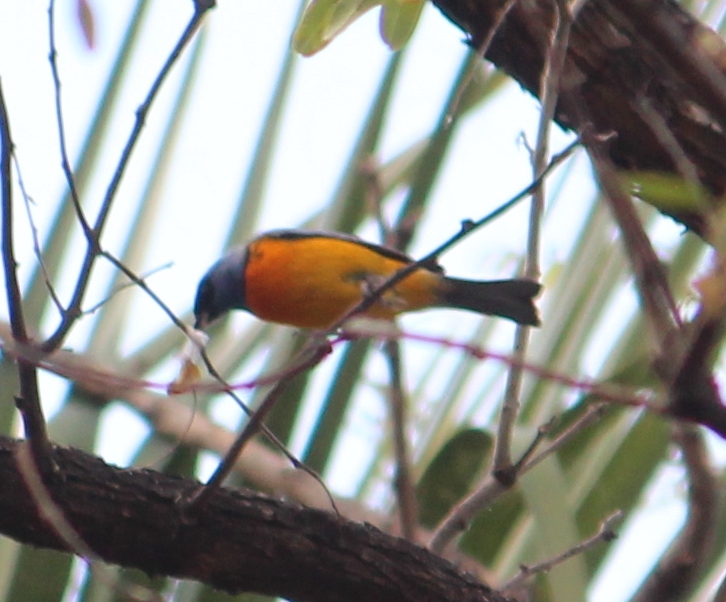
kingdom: Animalia
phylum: Chordata
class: Aves
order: Passeriformes
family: Thraupidae
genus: Rauenia
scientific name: Rauenia bonariensis
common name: Blue-and-yellow tanager
